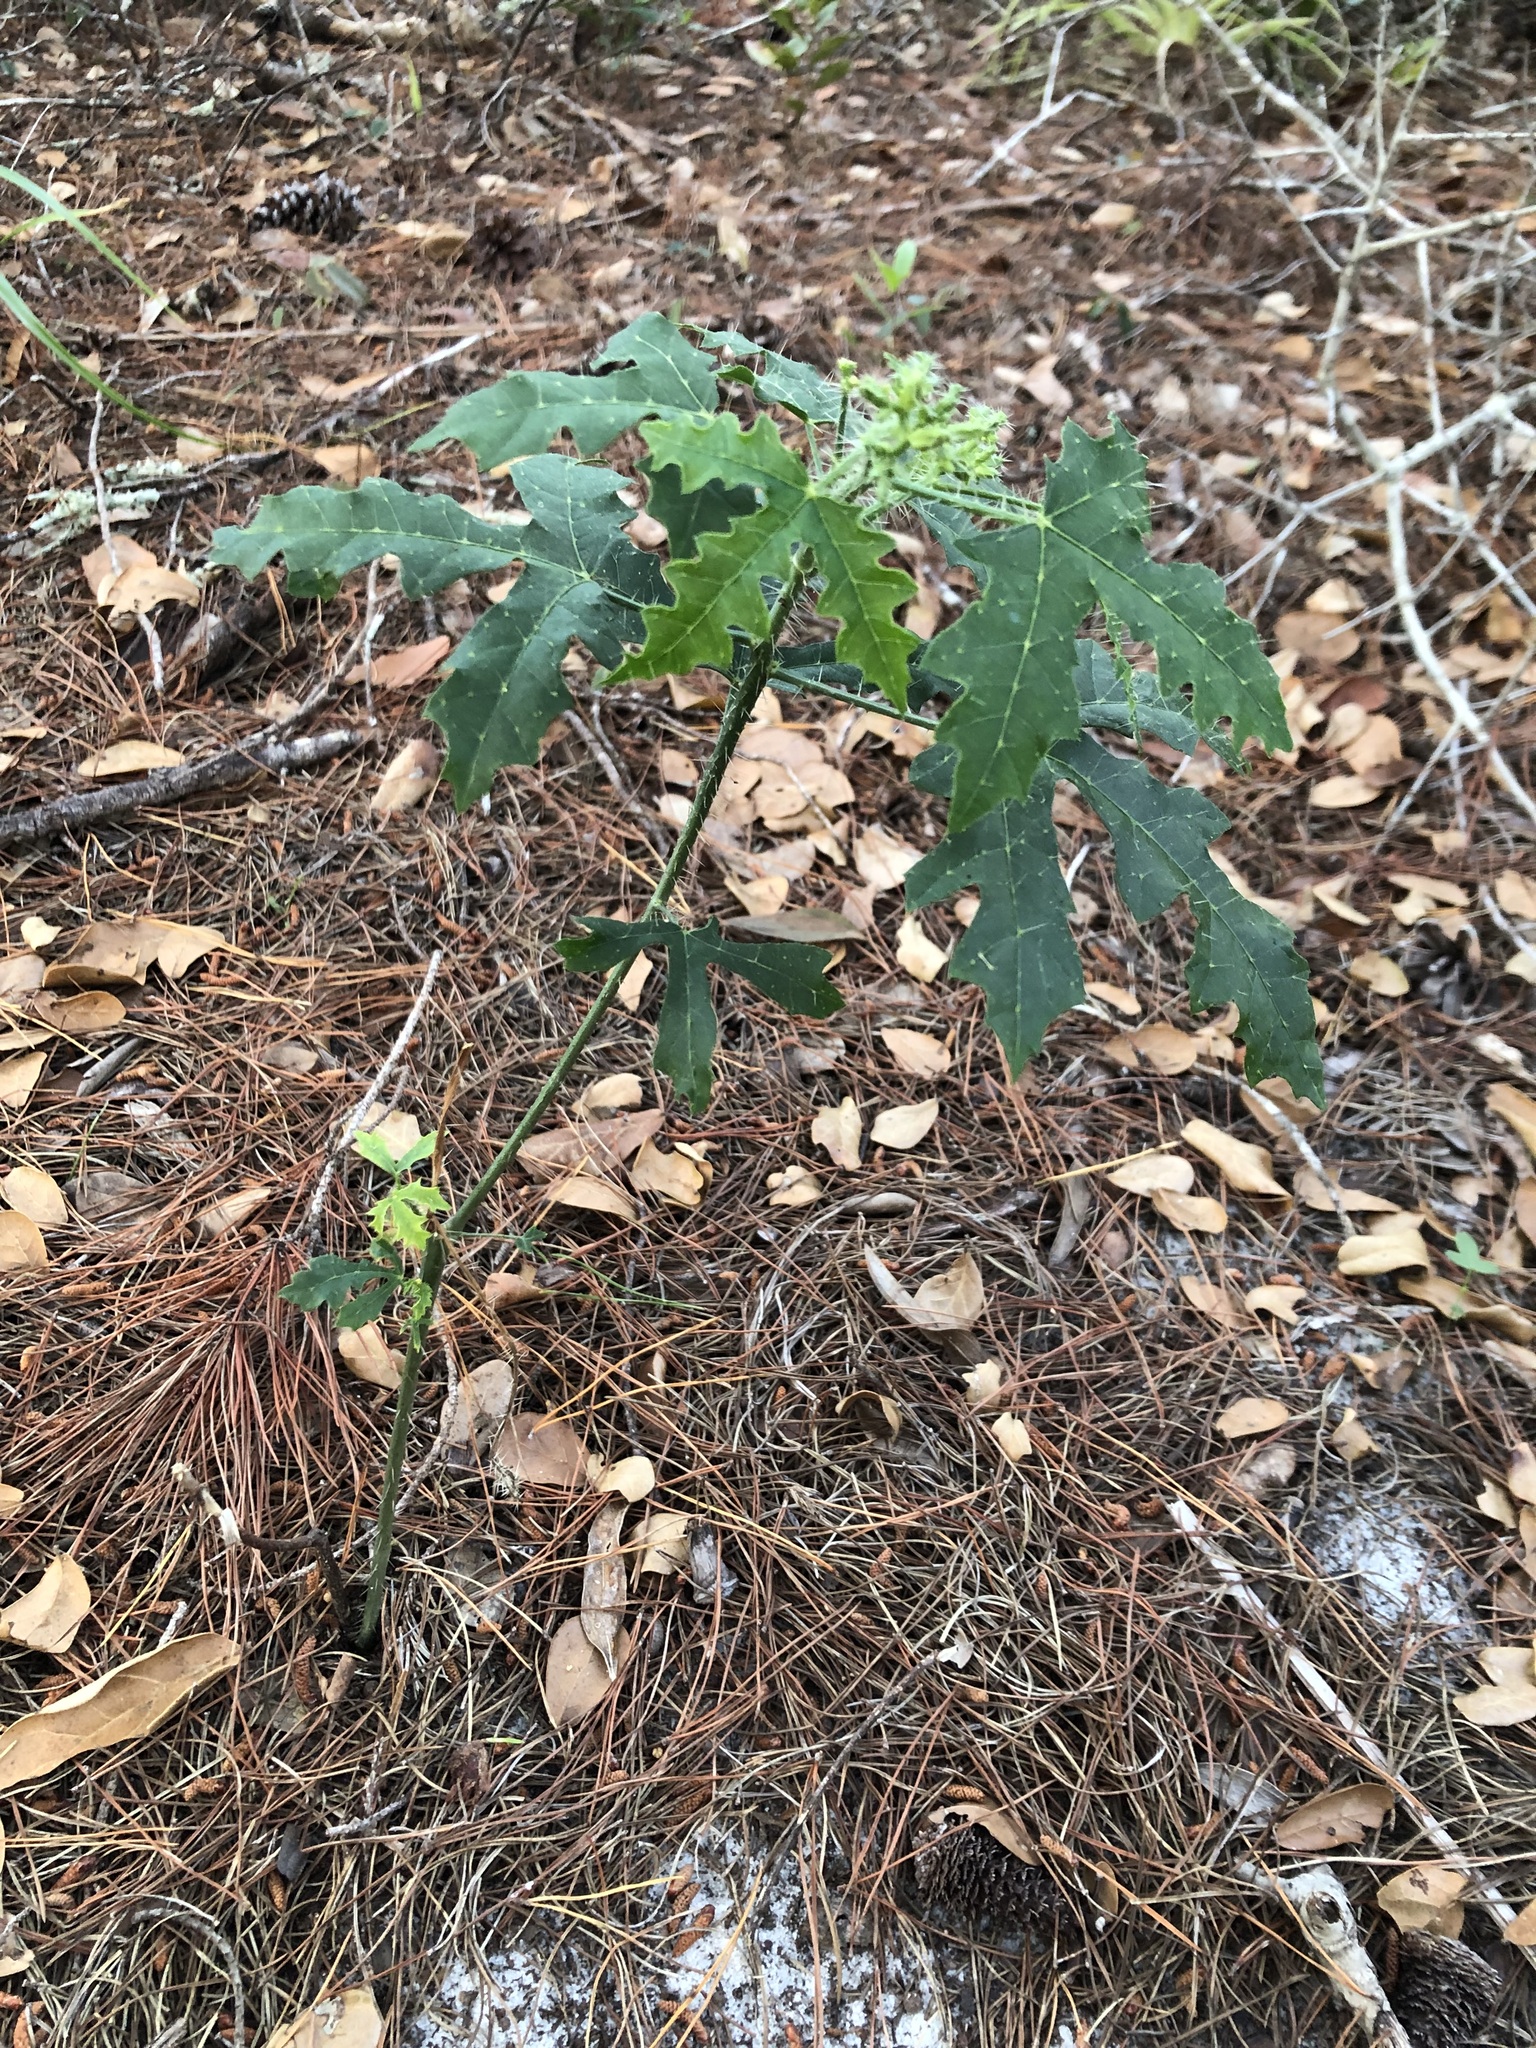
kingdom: Plantae
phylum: Tracheophyta
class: Magnoliopsida
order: Malpighiales
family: Euphorbiaceae
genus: Cnidoscolus
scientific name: Cnidoscolus stimulosus
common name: Bull-nettle
